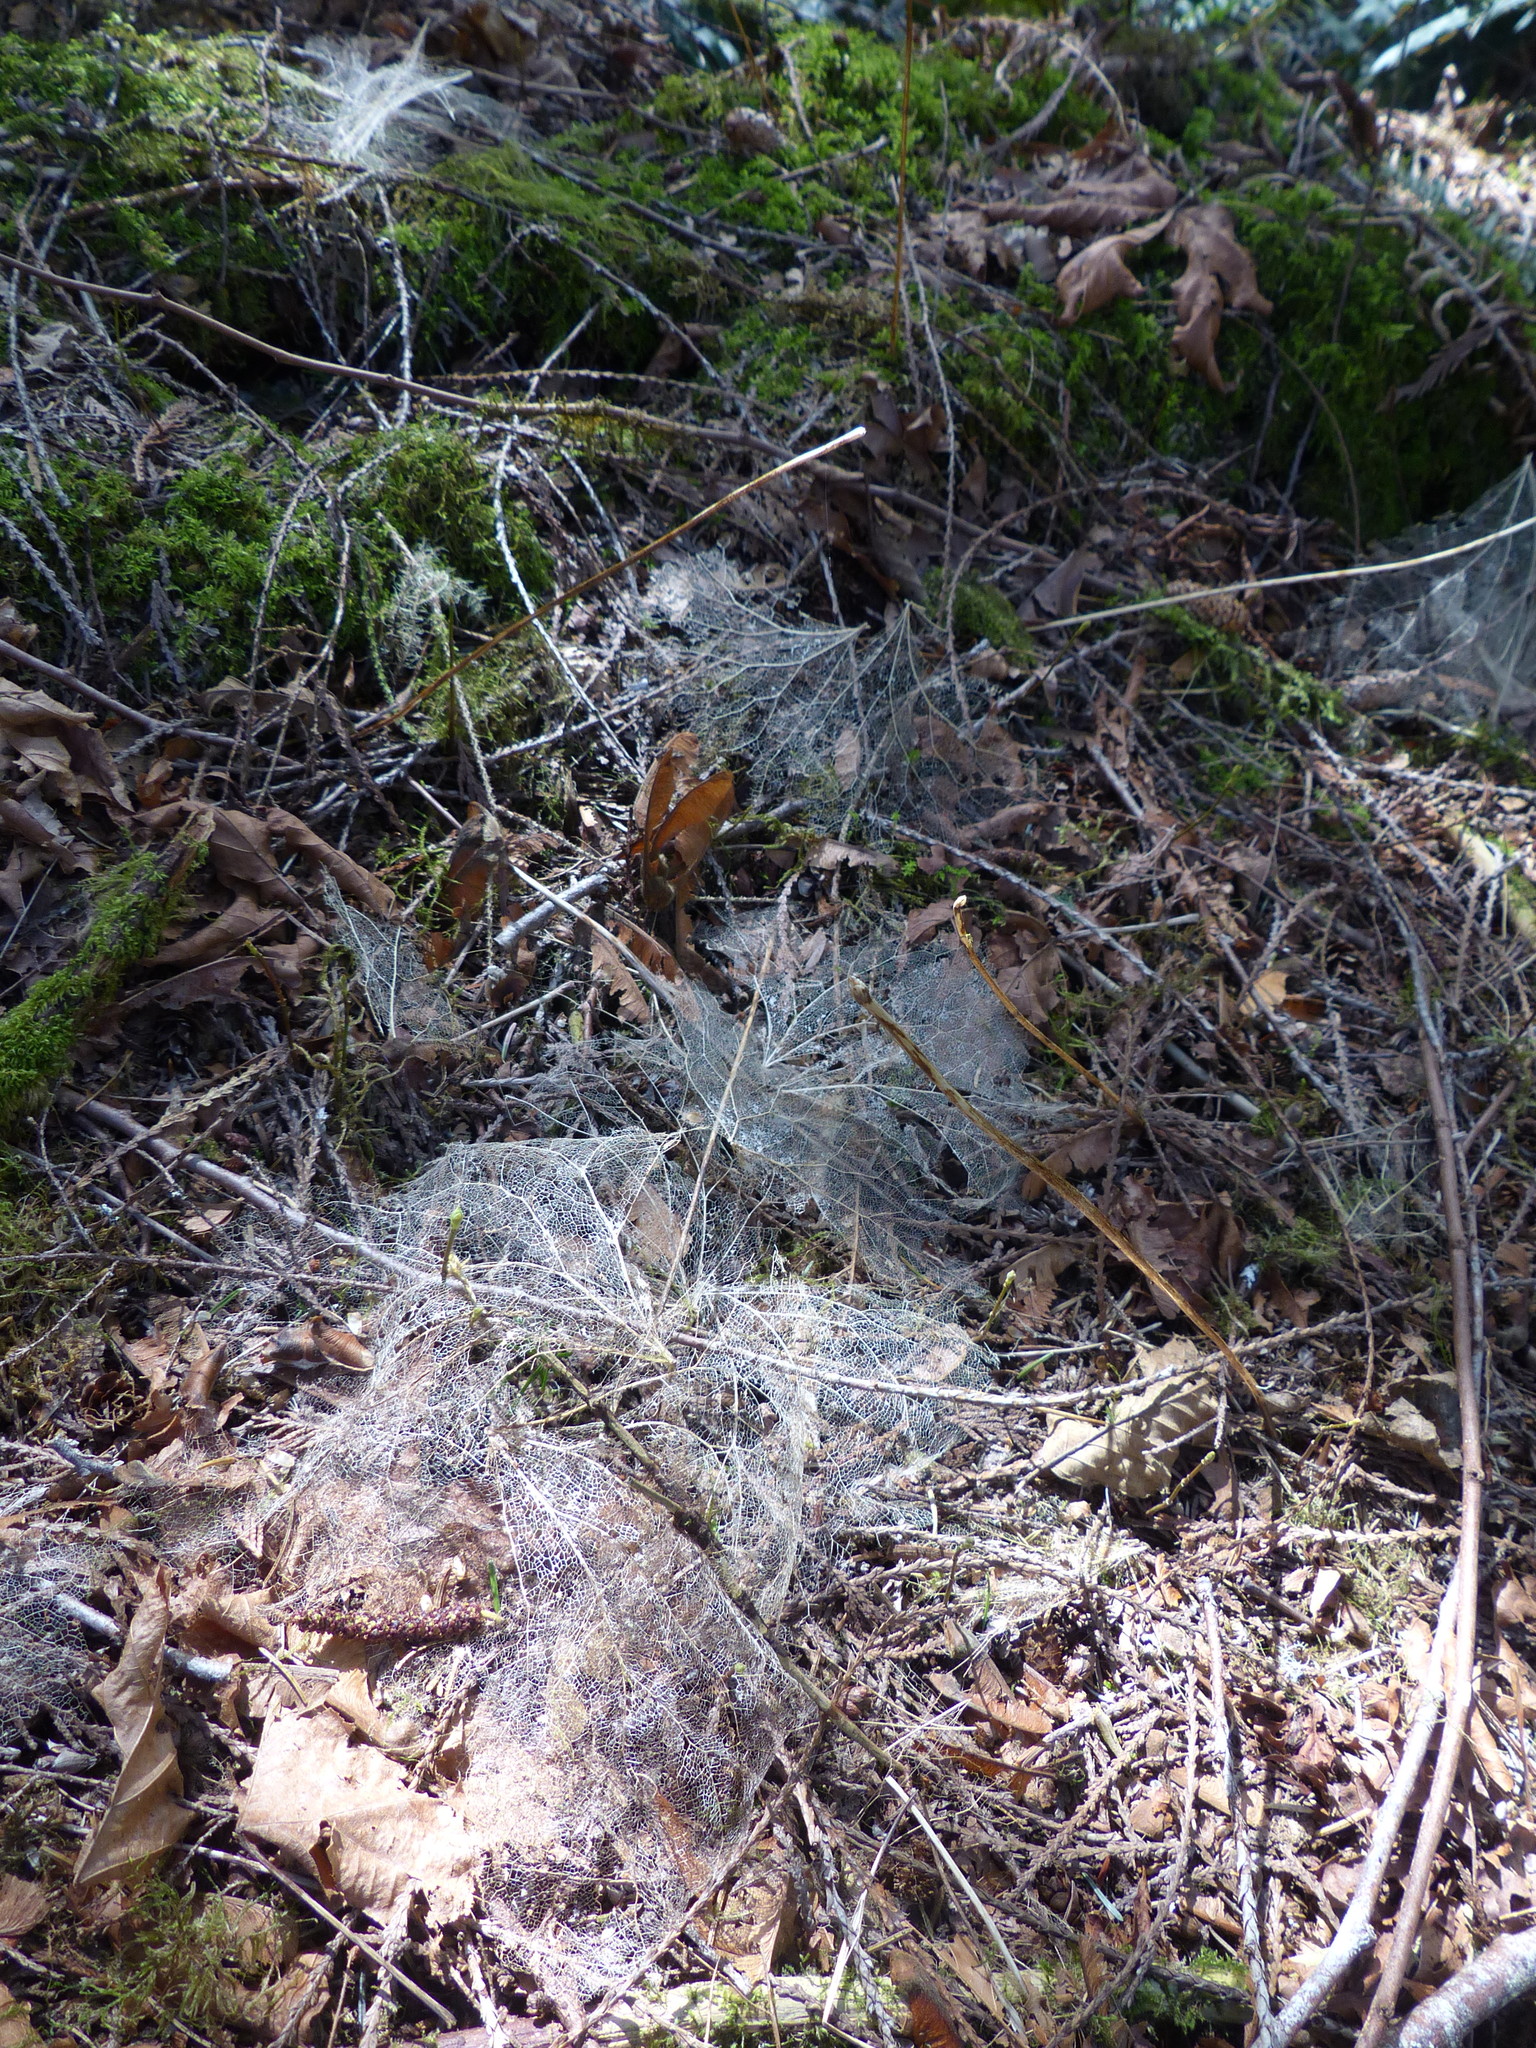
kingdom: Plantae
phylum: Tracheophyta
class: Magnoliopsida
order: Ranunculales
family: Berberidaceae
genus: Achlys
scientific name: Achlys triphylla
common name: Vanilla-leaf
